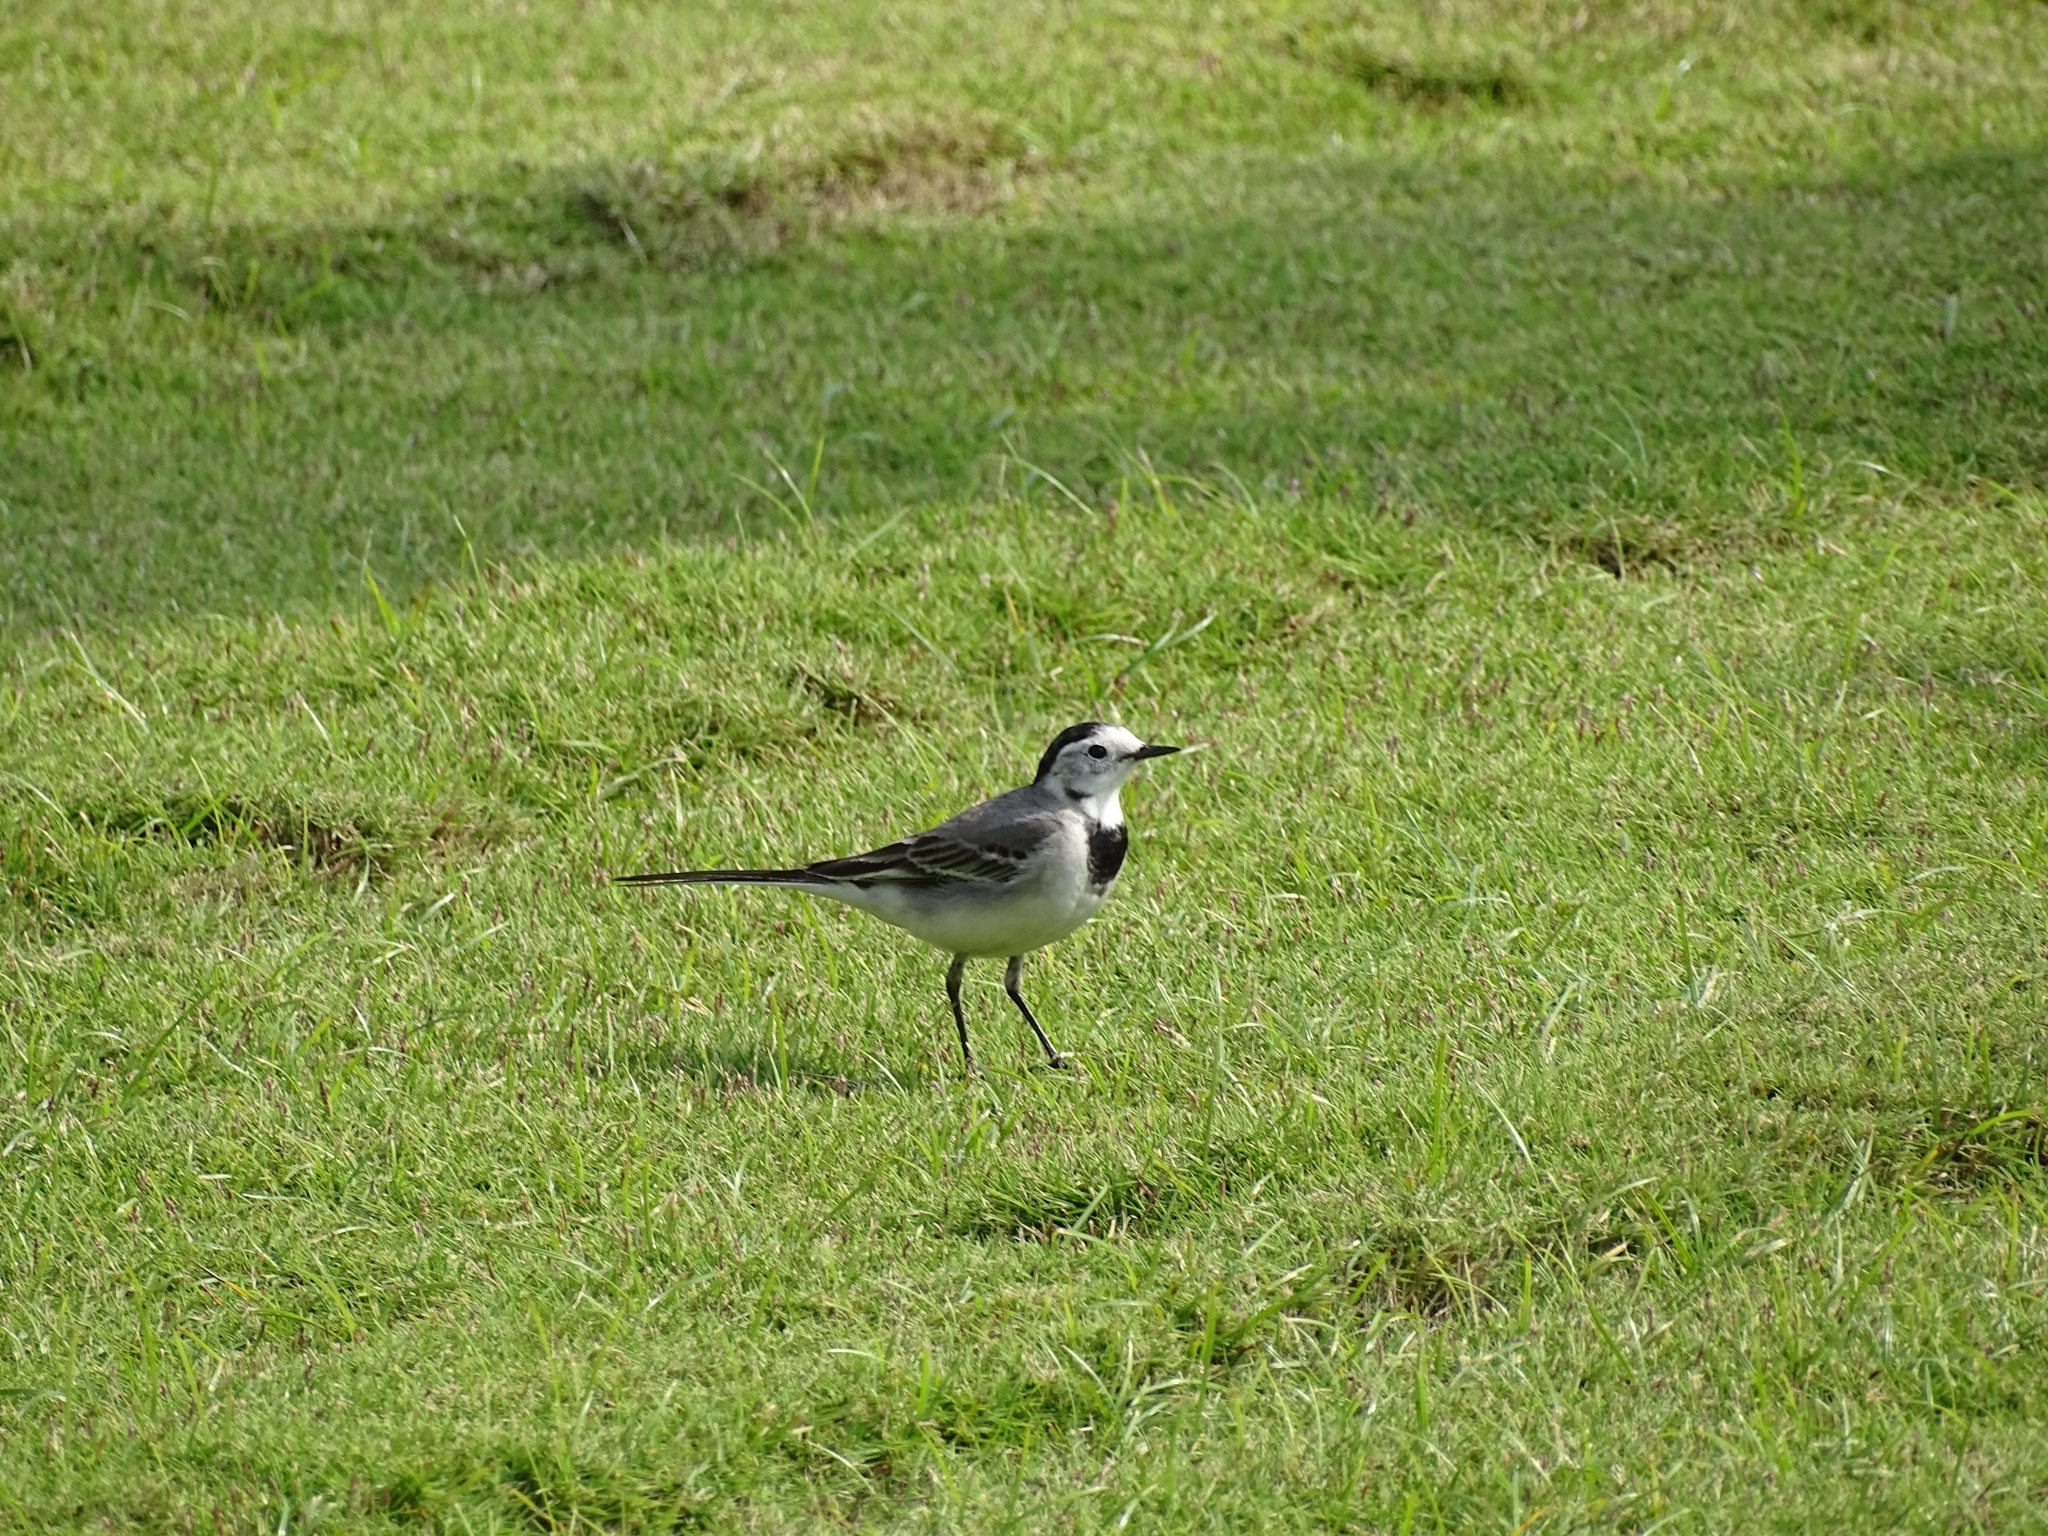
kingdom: Animalia
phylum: Chordata
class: Aves
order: Passeriformes
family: Motacillidae
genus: Motacilla
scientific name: Motacilla alba
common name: White wagtail
